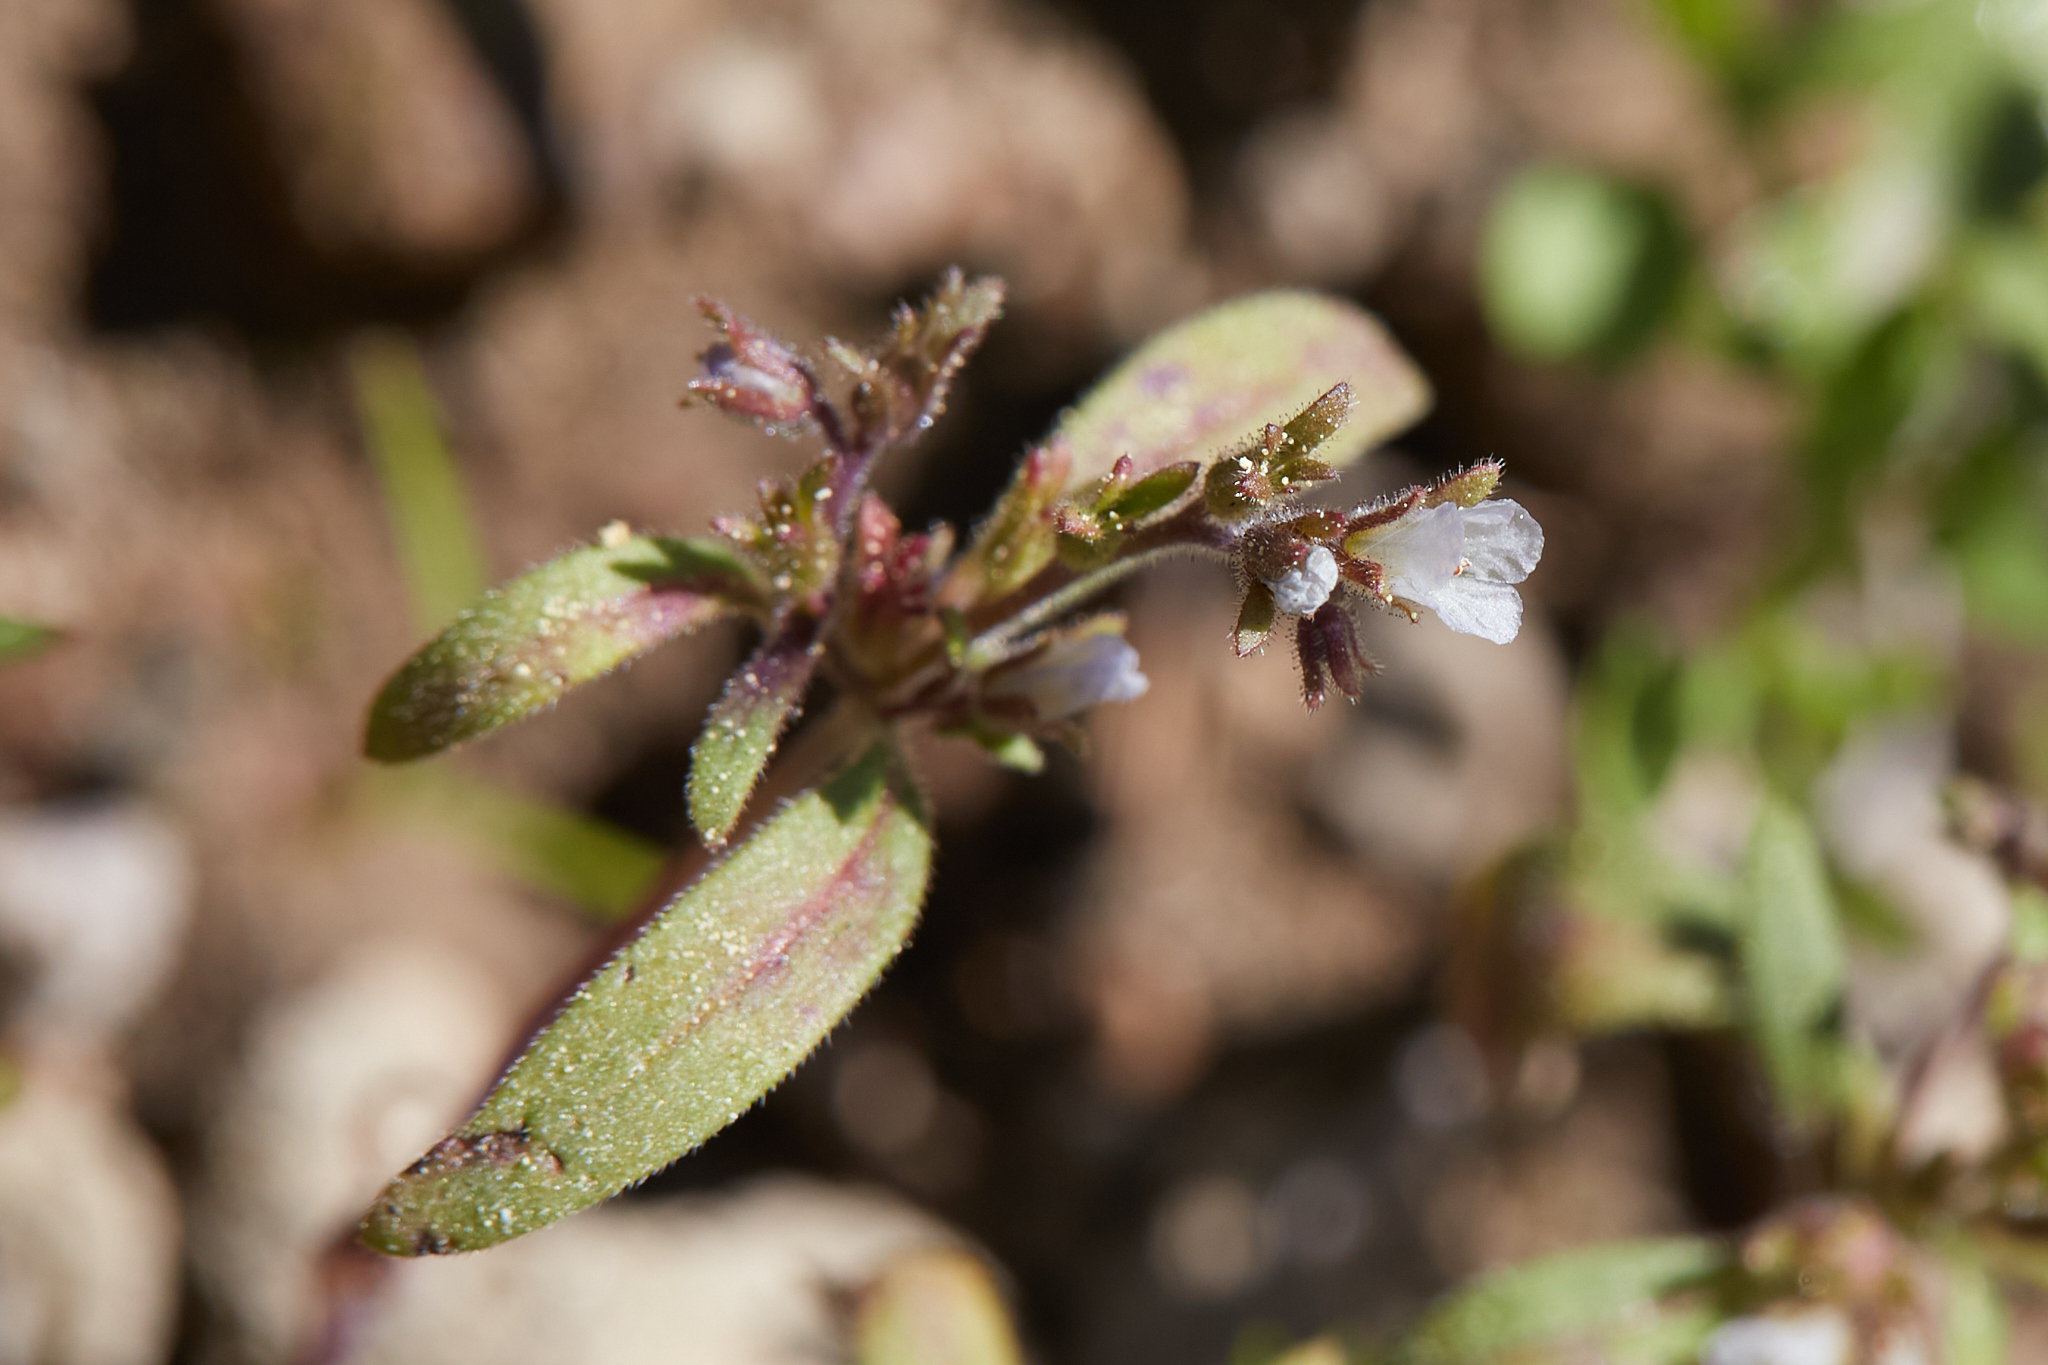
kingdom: Plantae
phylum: Tracheophyta
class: Magnoliopsida
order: Boraginales
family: Hydrophyllaceae
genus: Phacelia
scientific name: Phacelia racemosa
